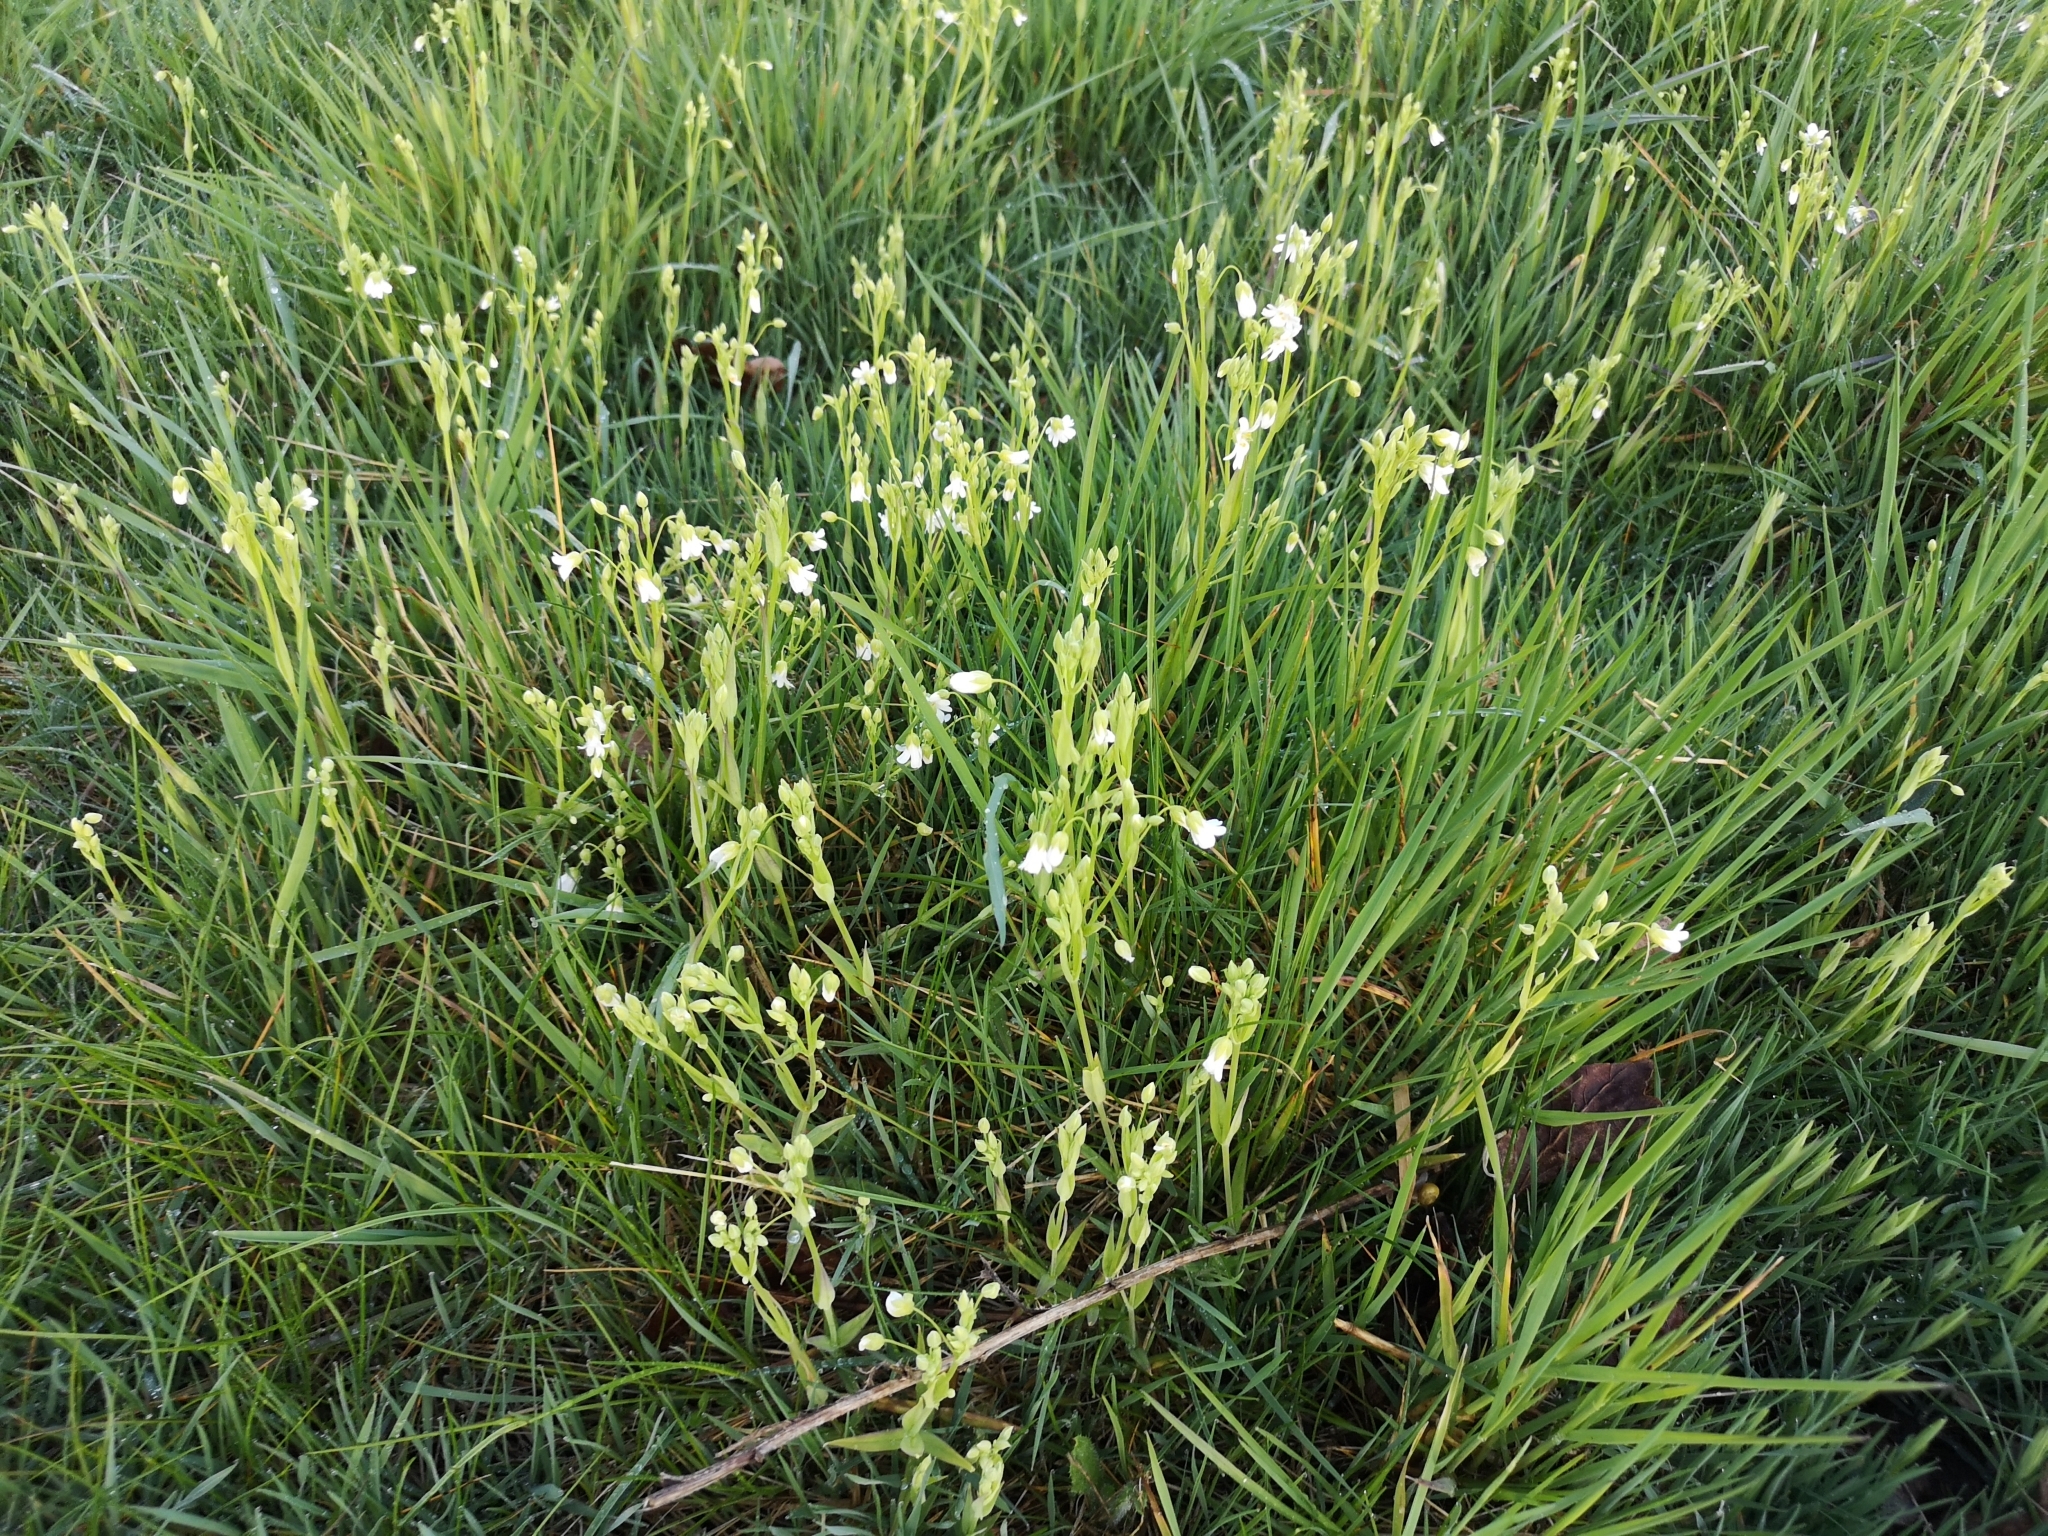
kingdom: Plantae
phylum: Tracheophyta
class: Magnoliopsida
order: Caryophyllales
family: Caryophyllaceae
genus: Rabelera
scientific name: Rabelera holostea
